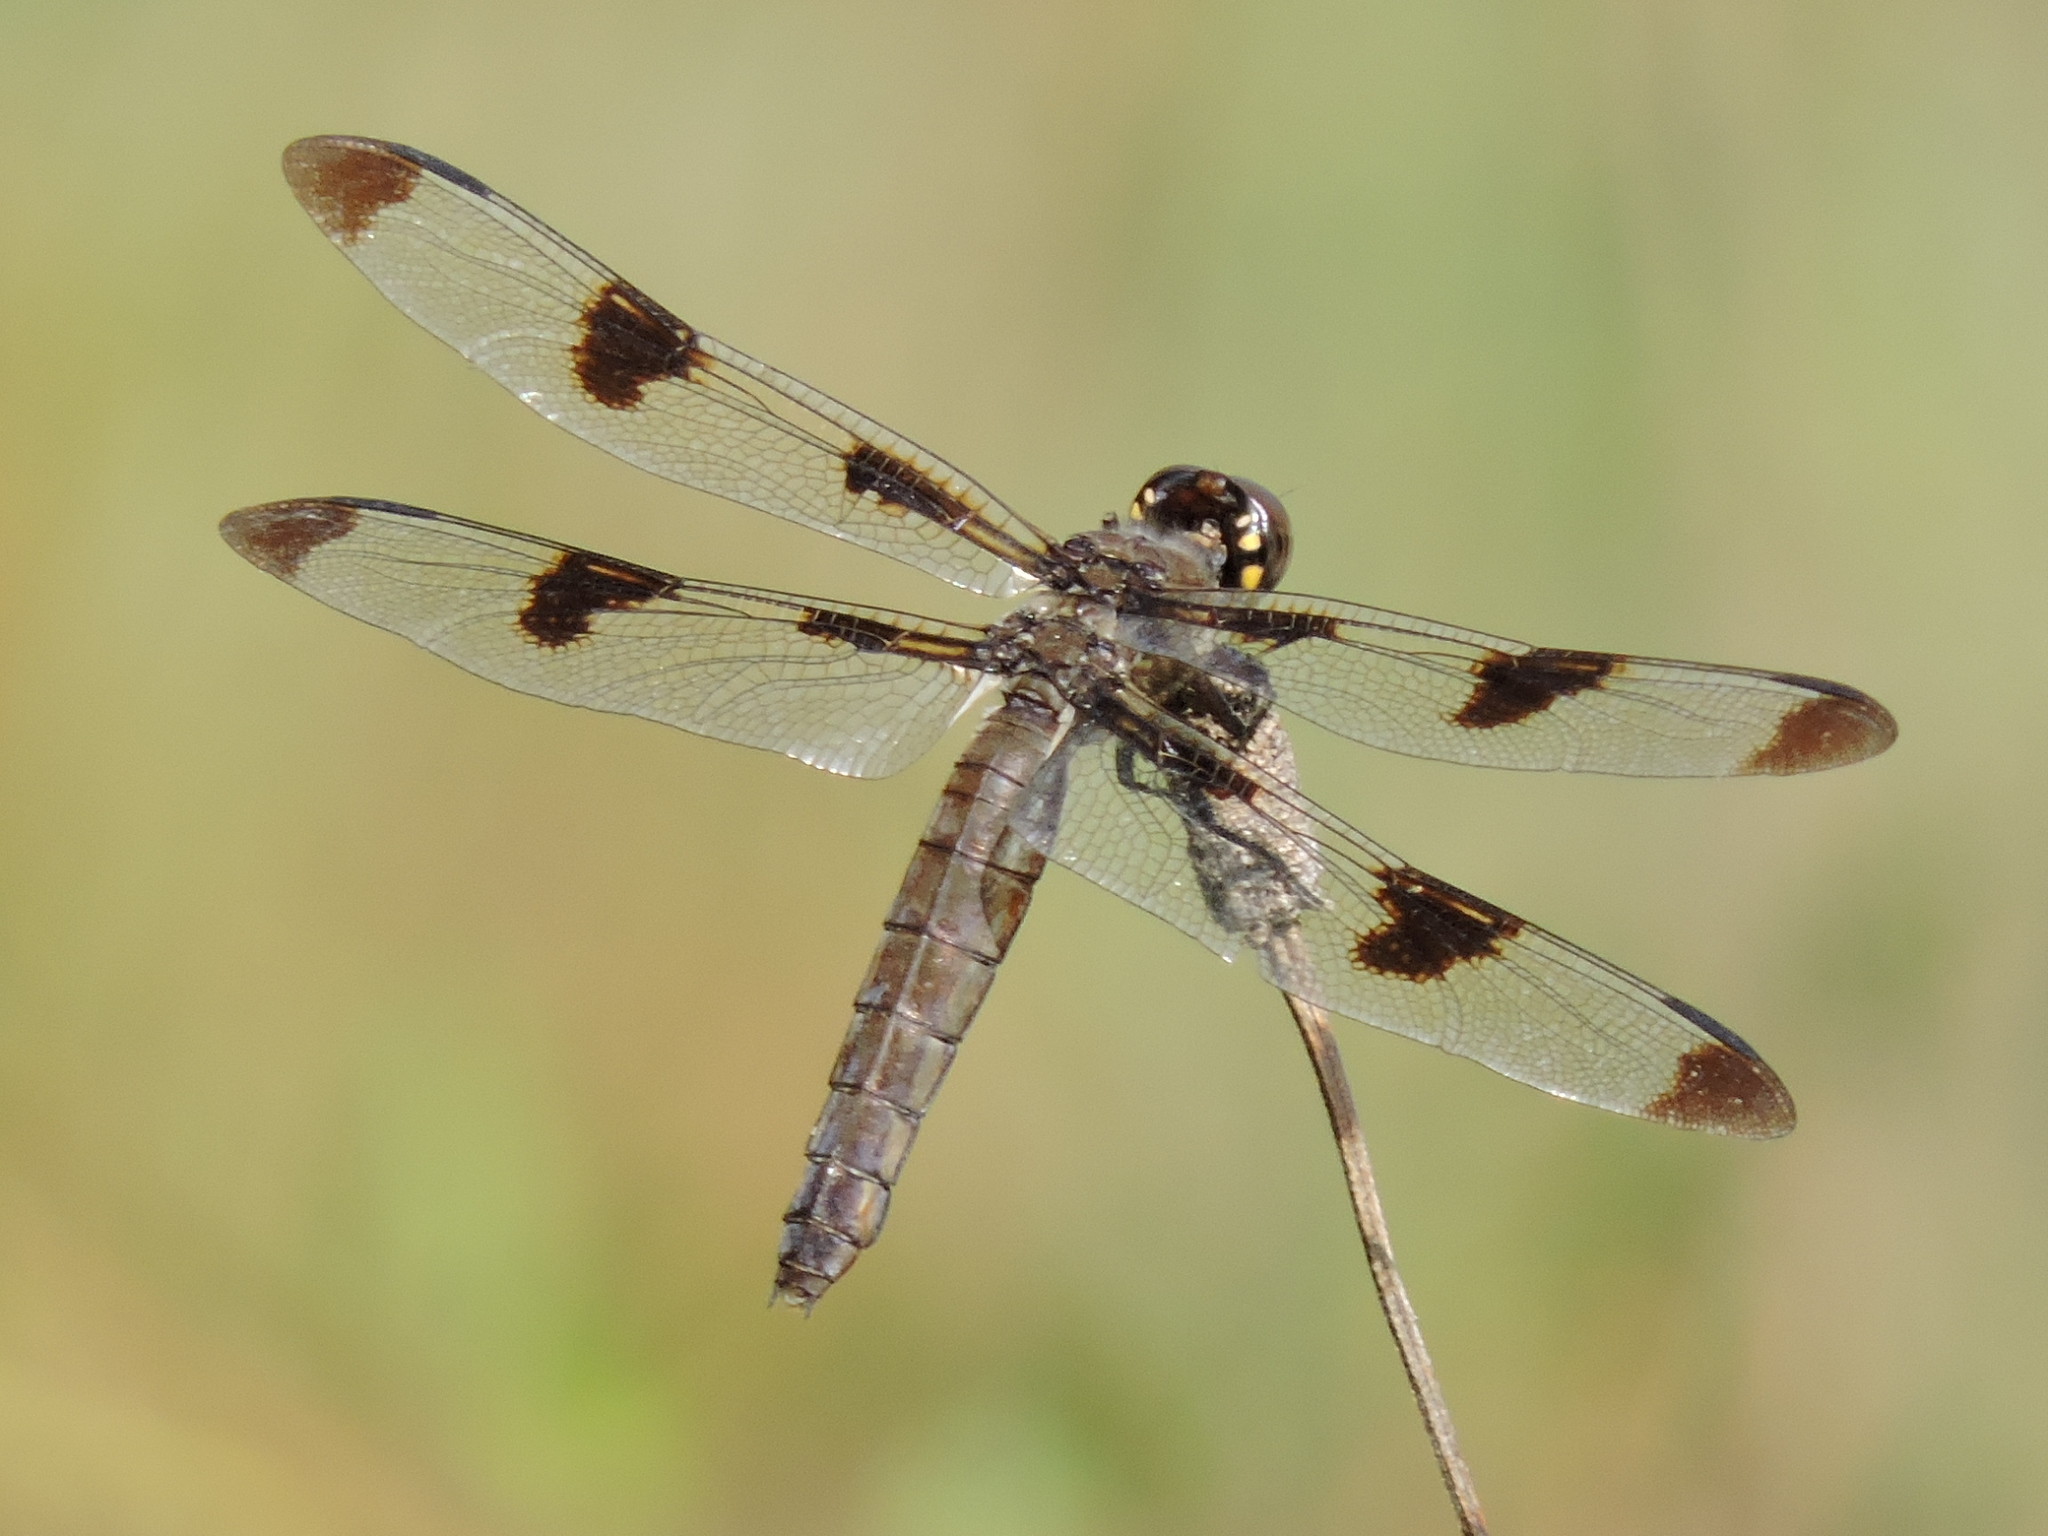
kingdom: Animalia
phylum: Arthropoda
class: Insecta
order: Odonata
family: Libellulidae
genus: Libellula
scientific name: Libellula pulchella
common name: Twelve-spotted skimmer
